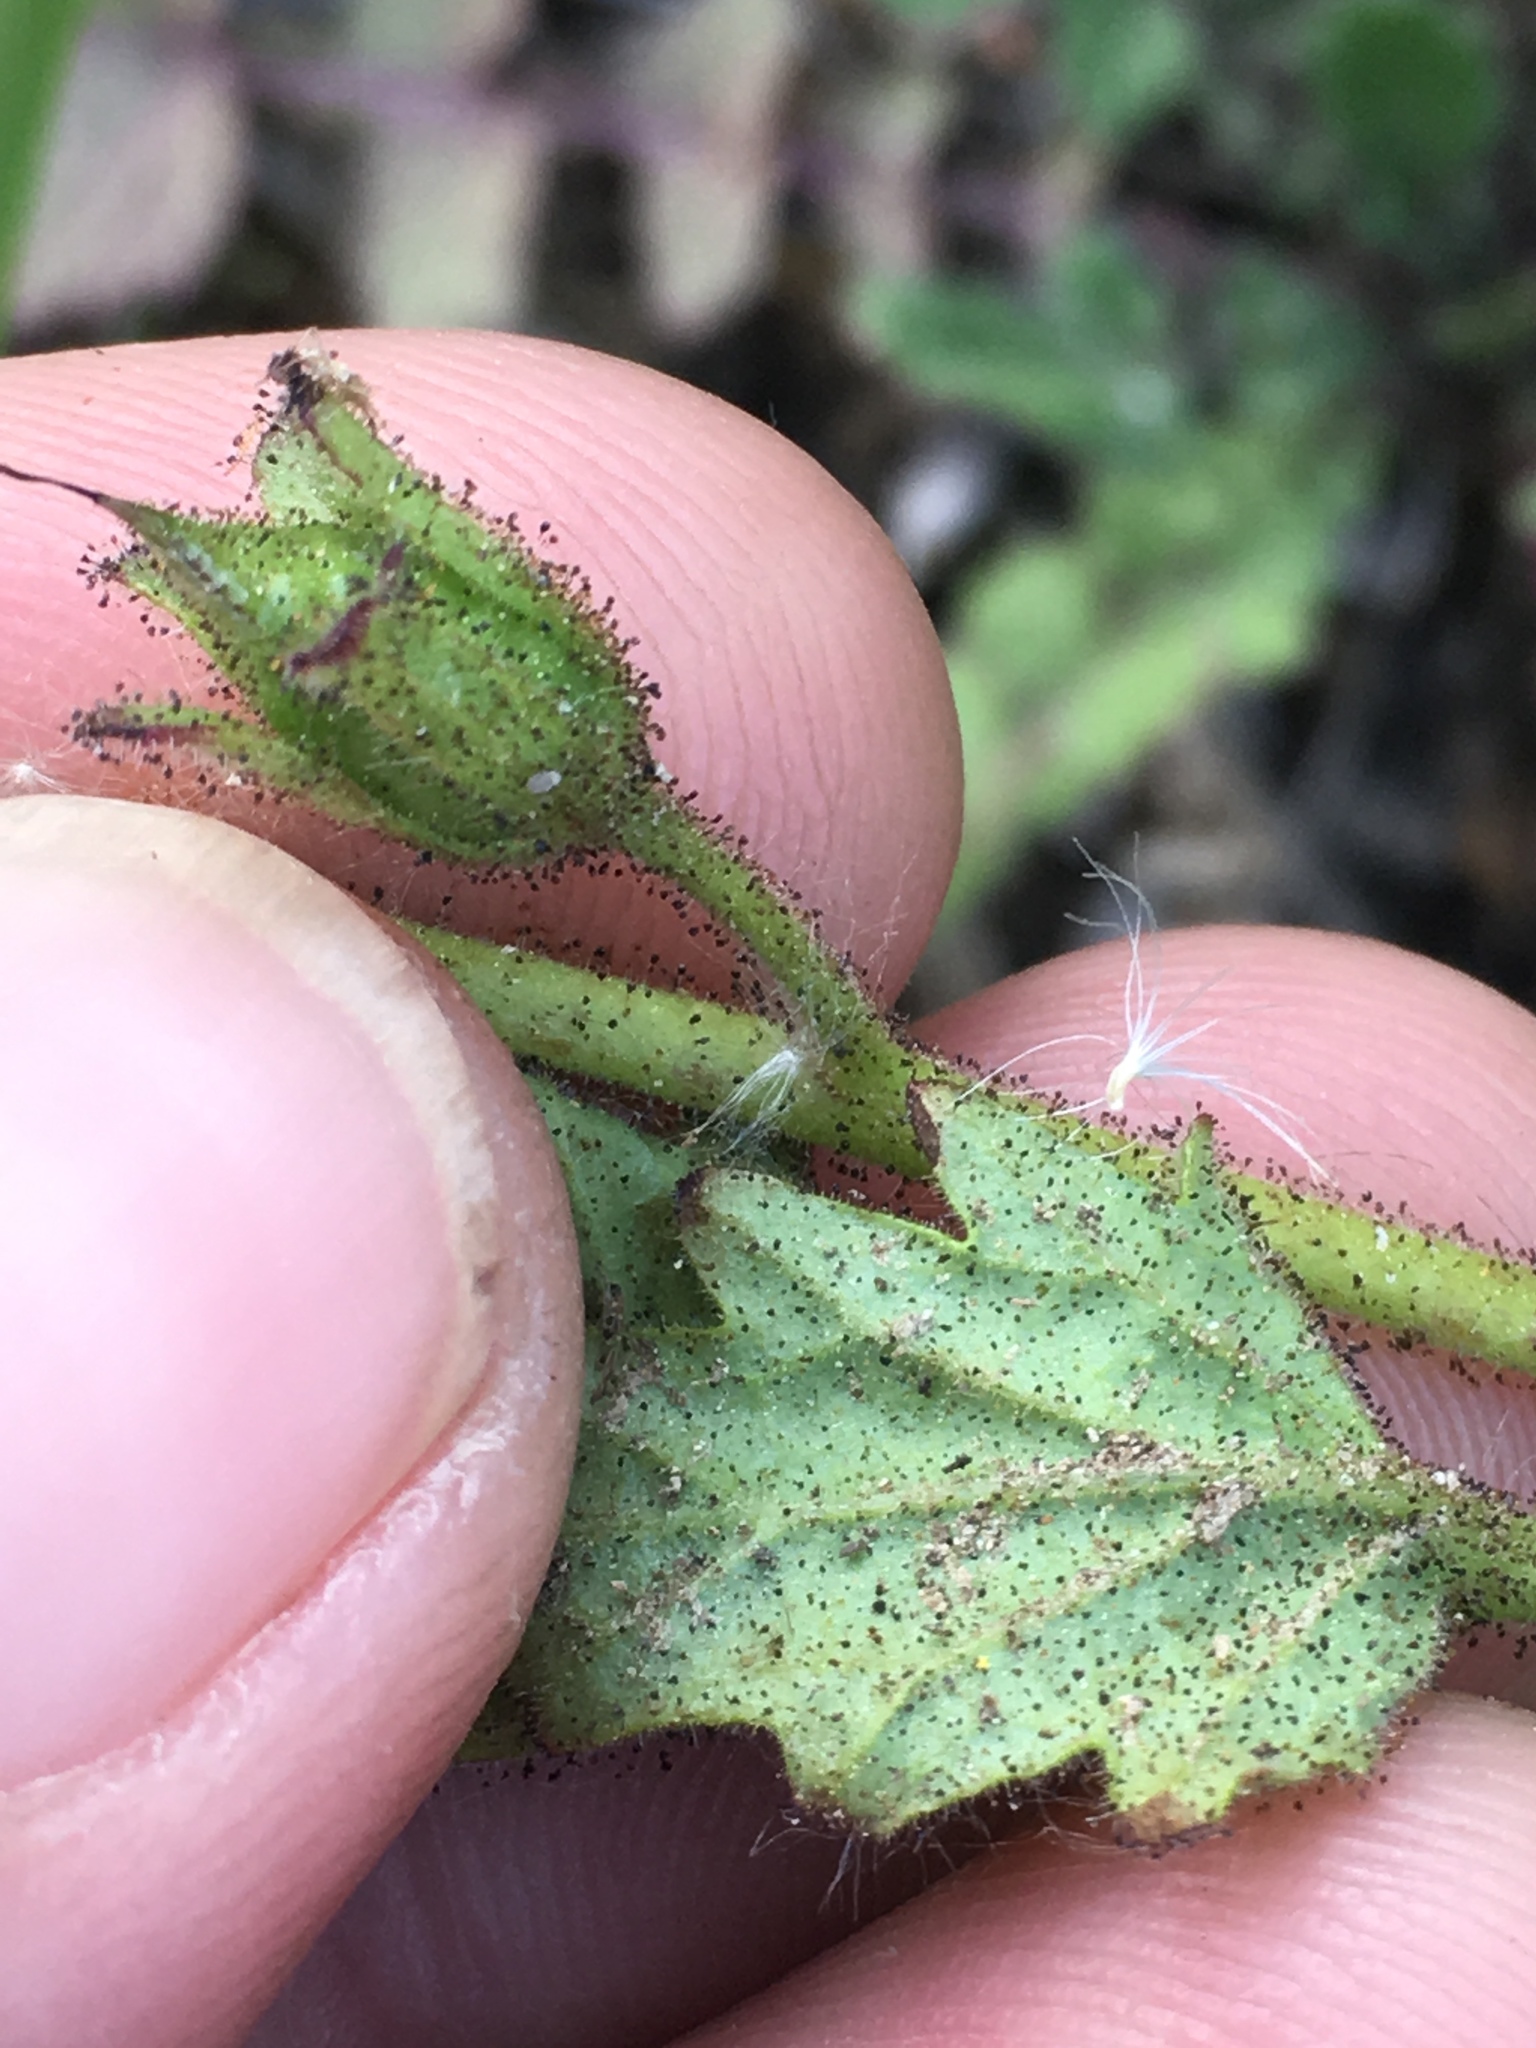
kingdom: Plantae
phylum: Tracheophyta
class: Magnoliopsida
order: Boraginales
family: Hydrophyllaceae
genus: Phacelia
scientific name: Phacelia viscida
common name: Sticky phacelia
